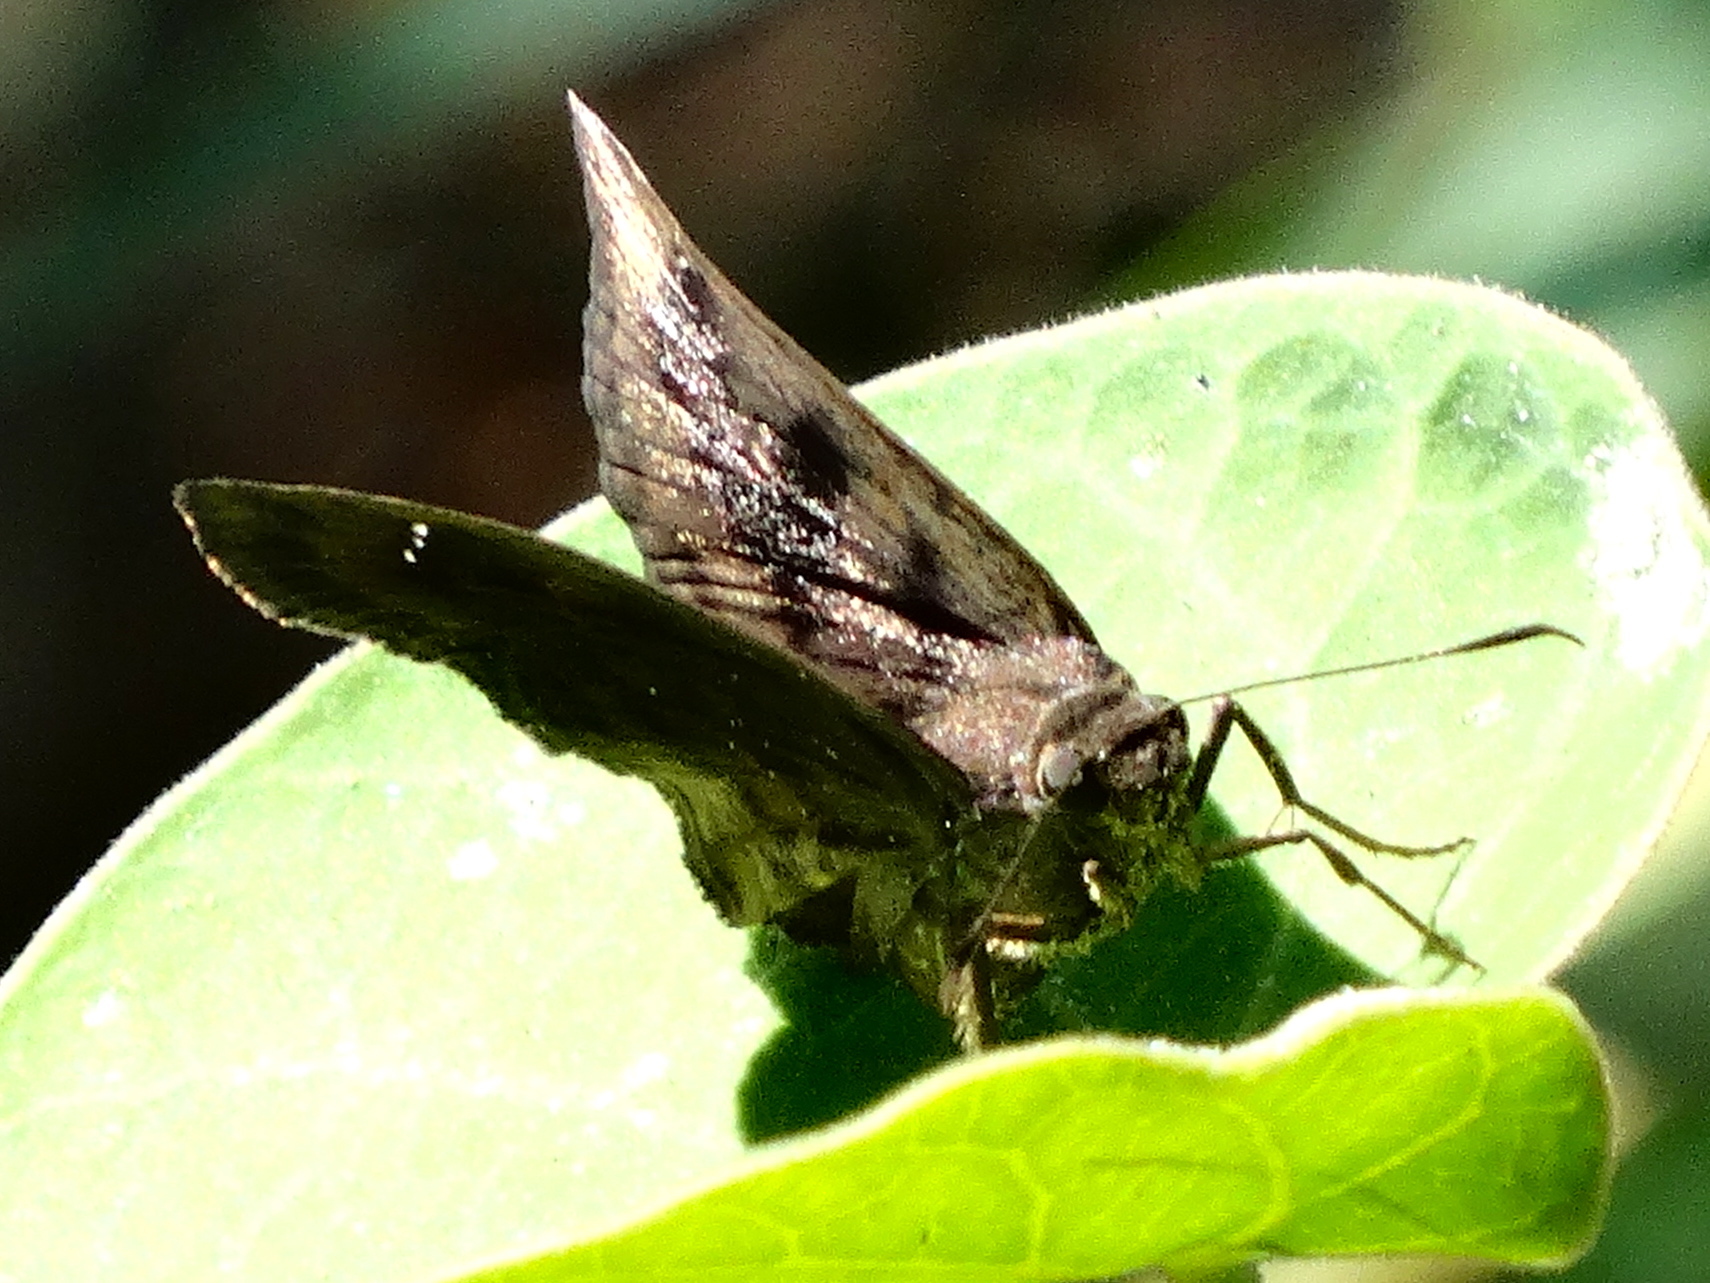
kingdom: Animalia
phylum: Arthropoda
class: Insecta
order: Lepidoptera
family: Hesperiidae
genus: Nisoniades
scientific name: Nisoniades
